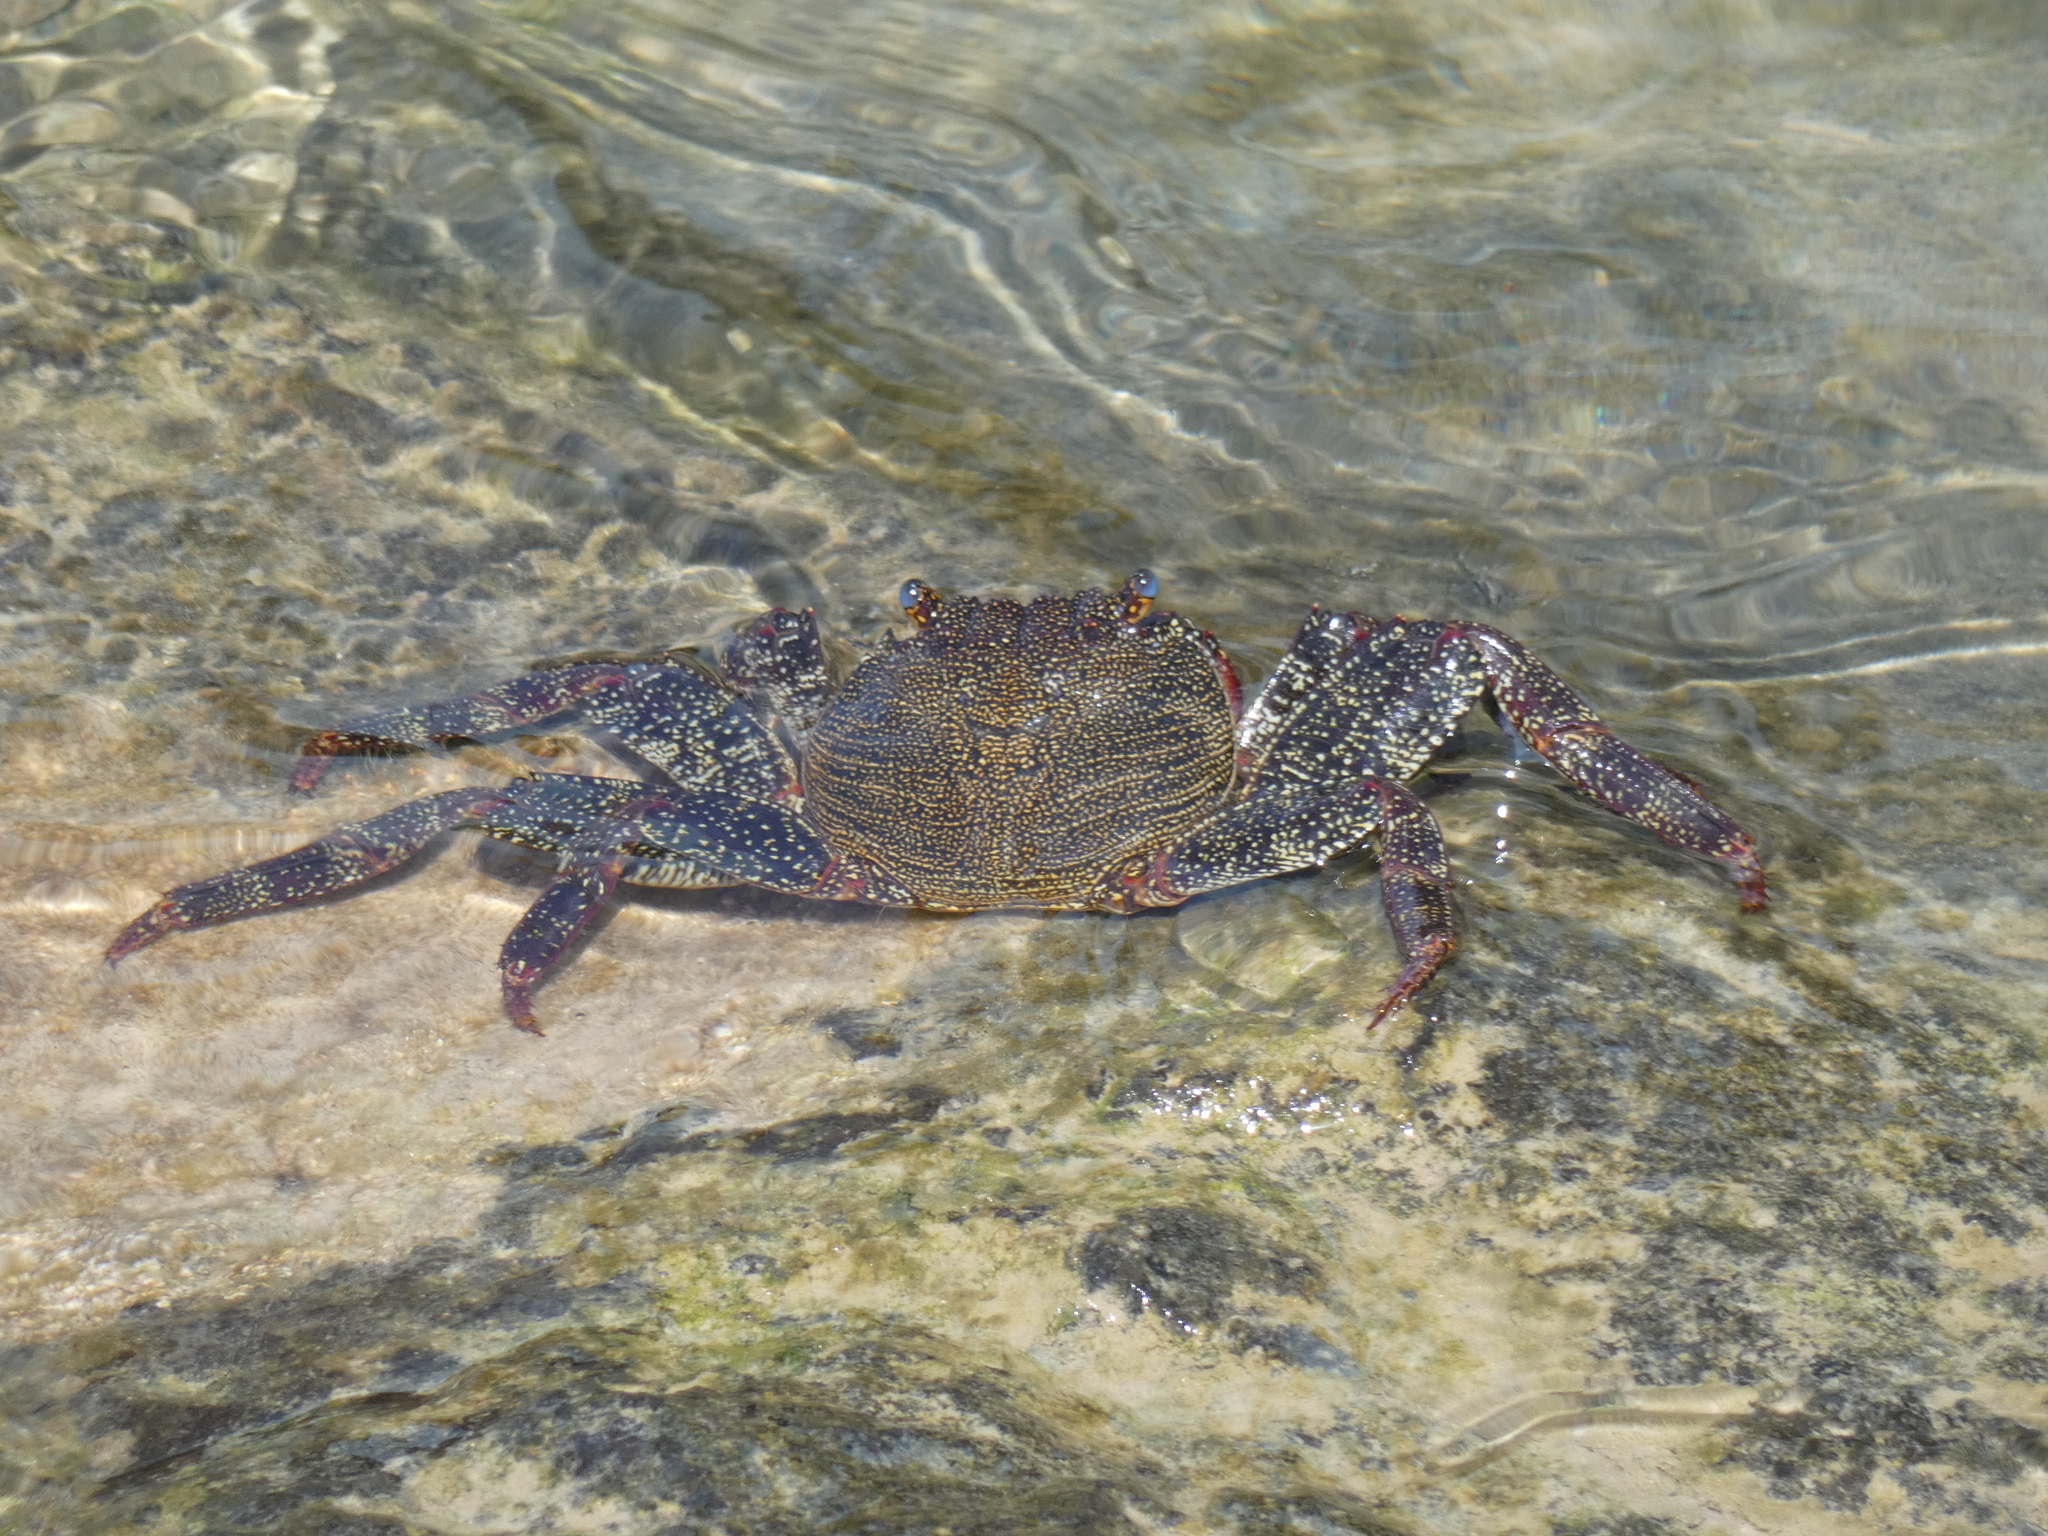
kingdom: Animalia
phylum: Arthropoda
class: Malacostraca
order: Decapoda
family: Grapsidae
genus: Grapsus
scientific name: Grapsus adscensionis
